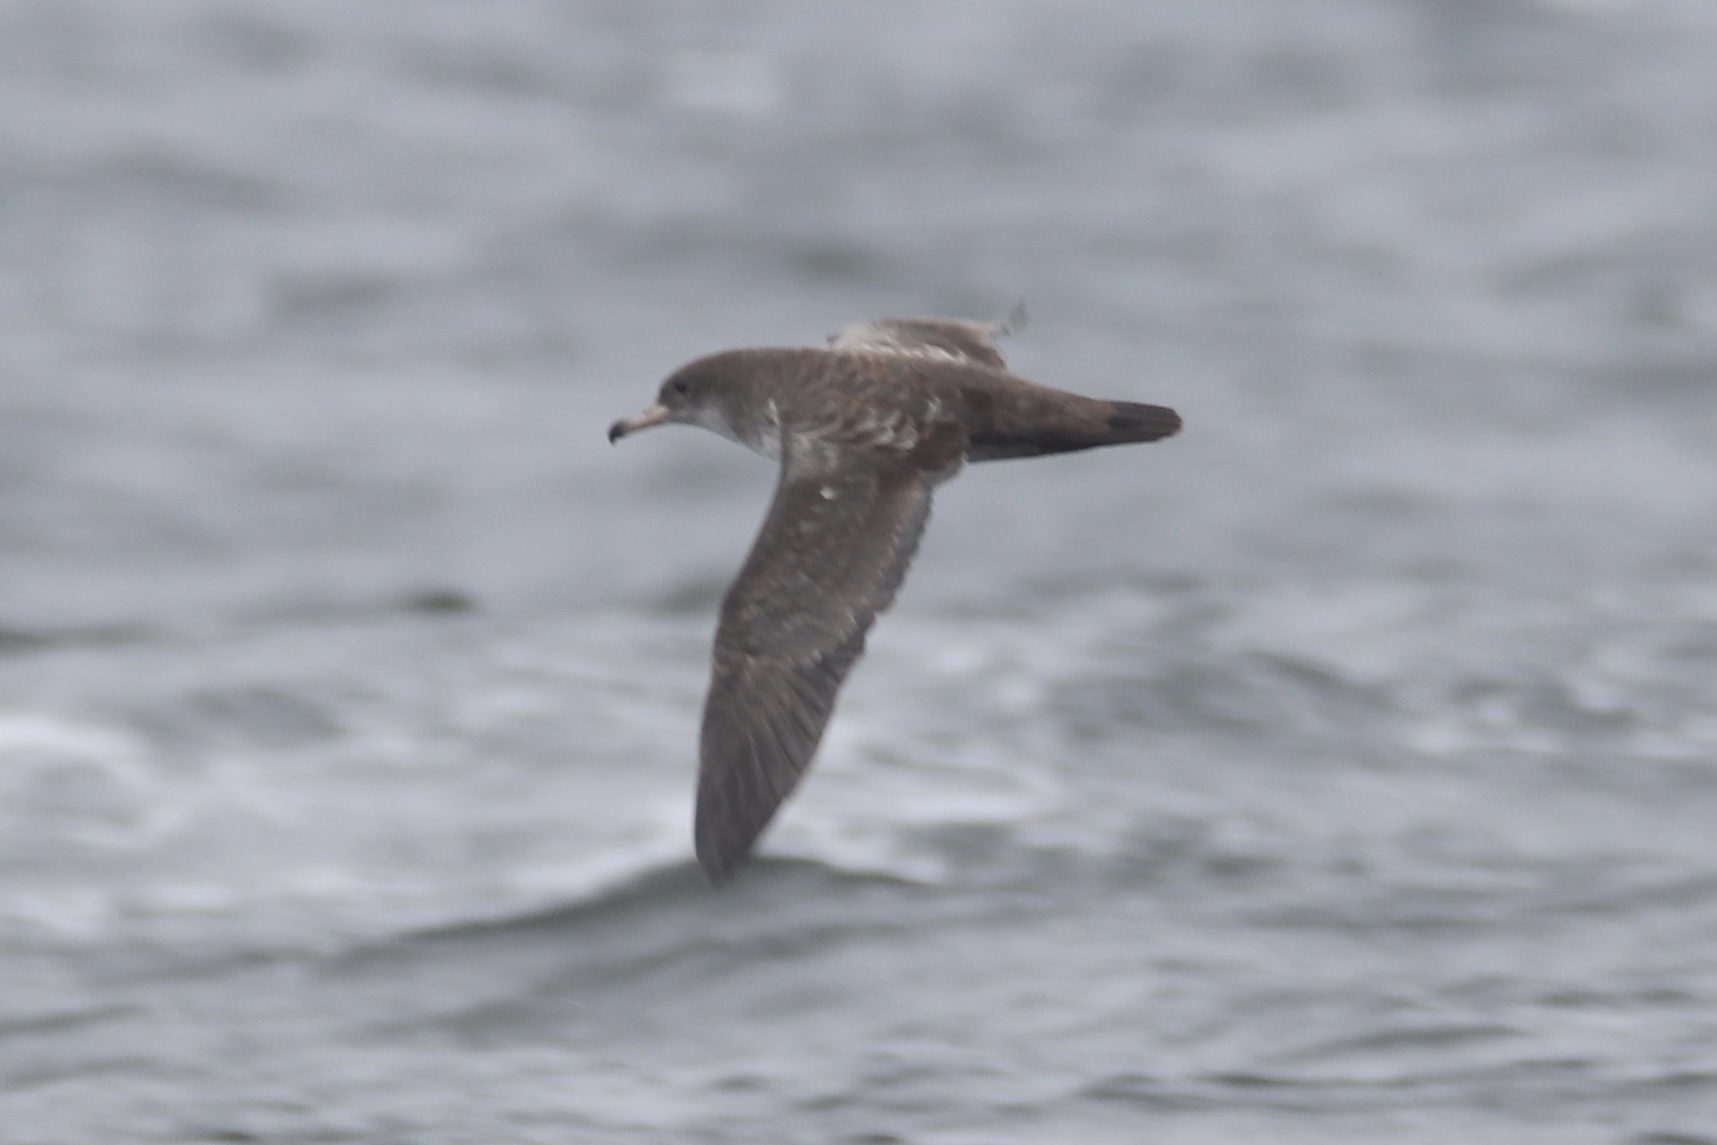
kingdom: Animalia
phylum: Chordata
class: Aves
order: Procellariiformes
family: Procellariidae
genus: Puffinus
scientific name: Puffinus creatopus
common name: Pink-footed shearwater
